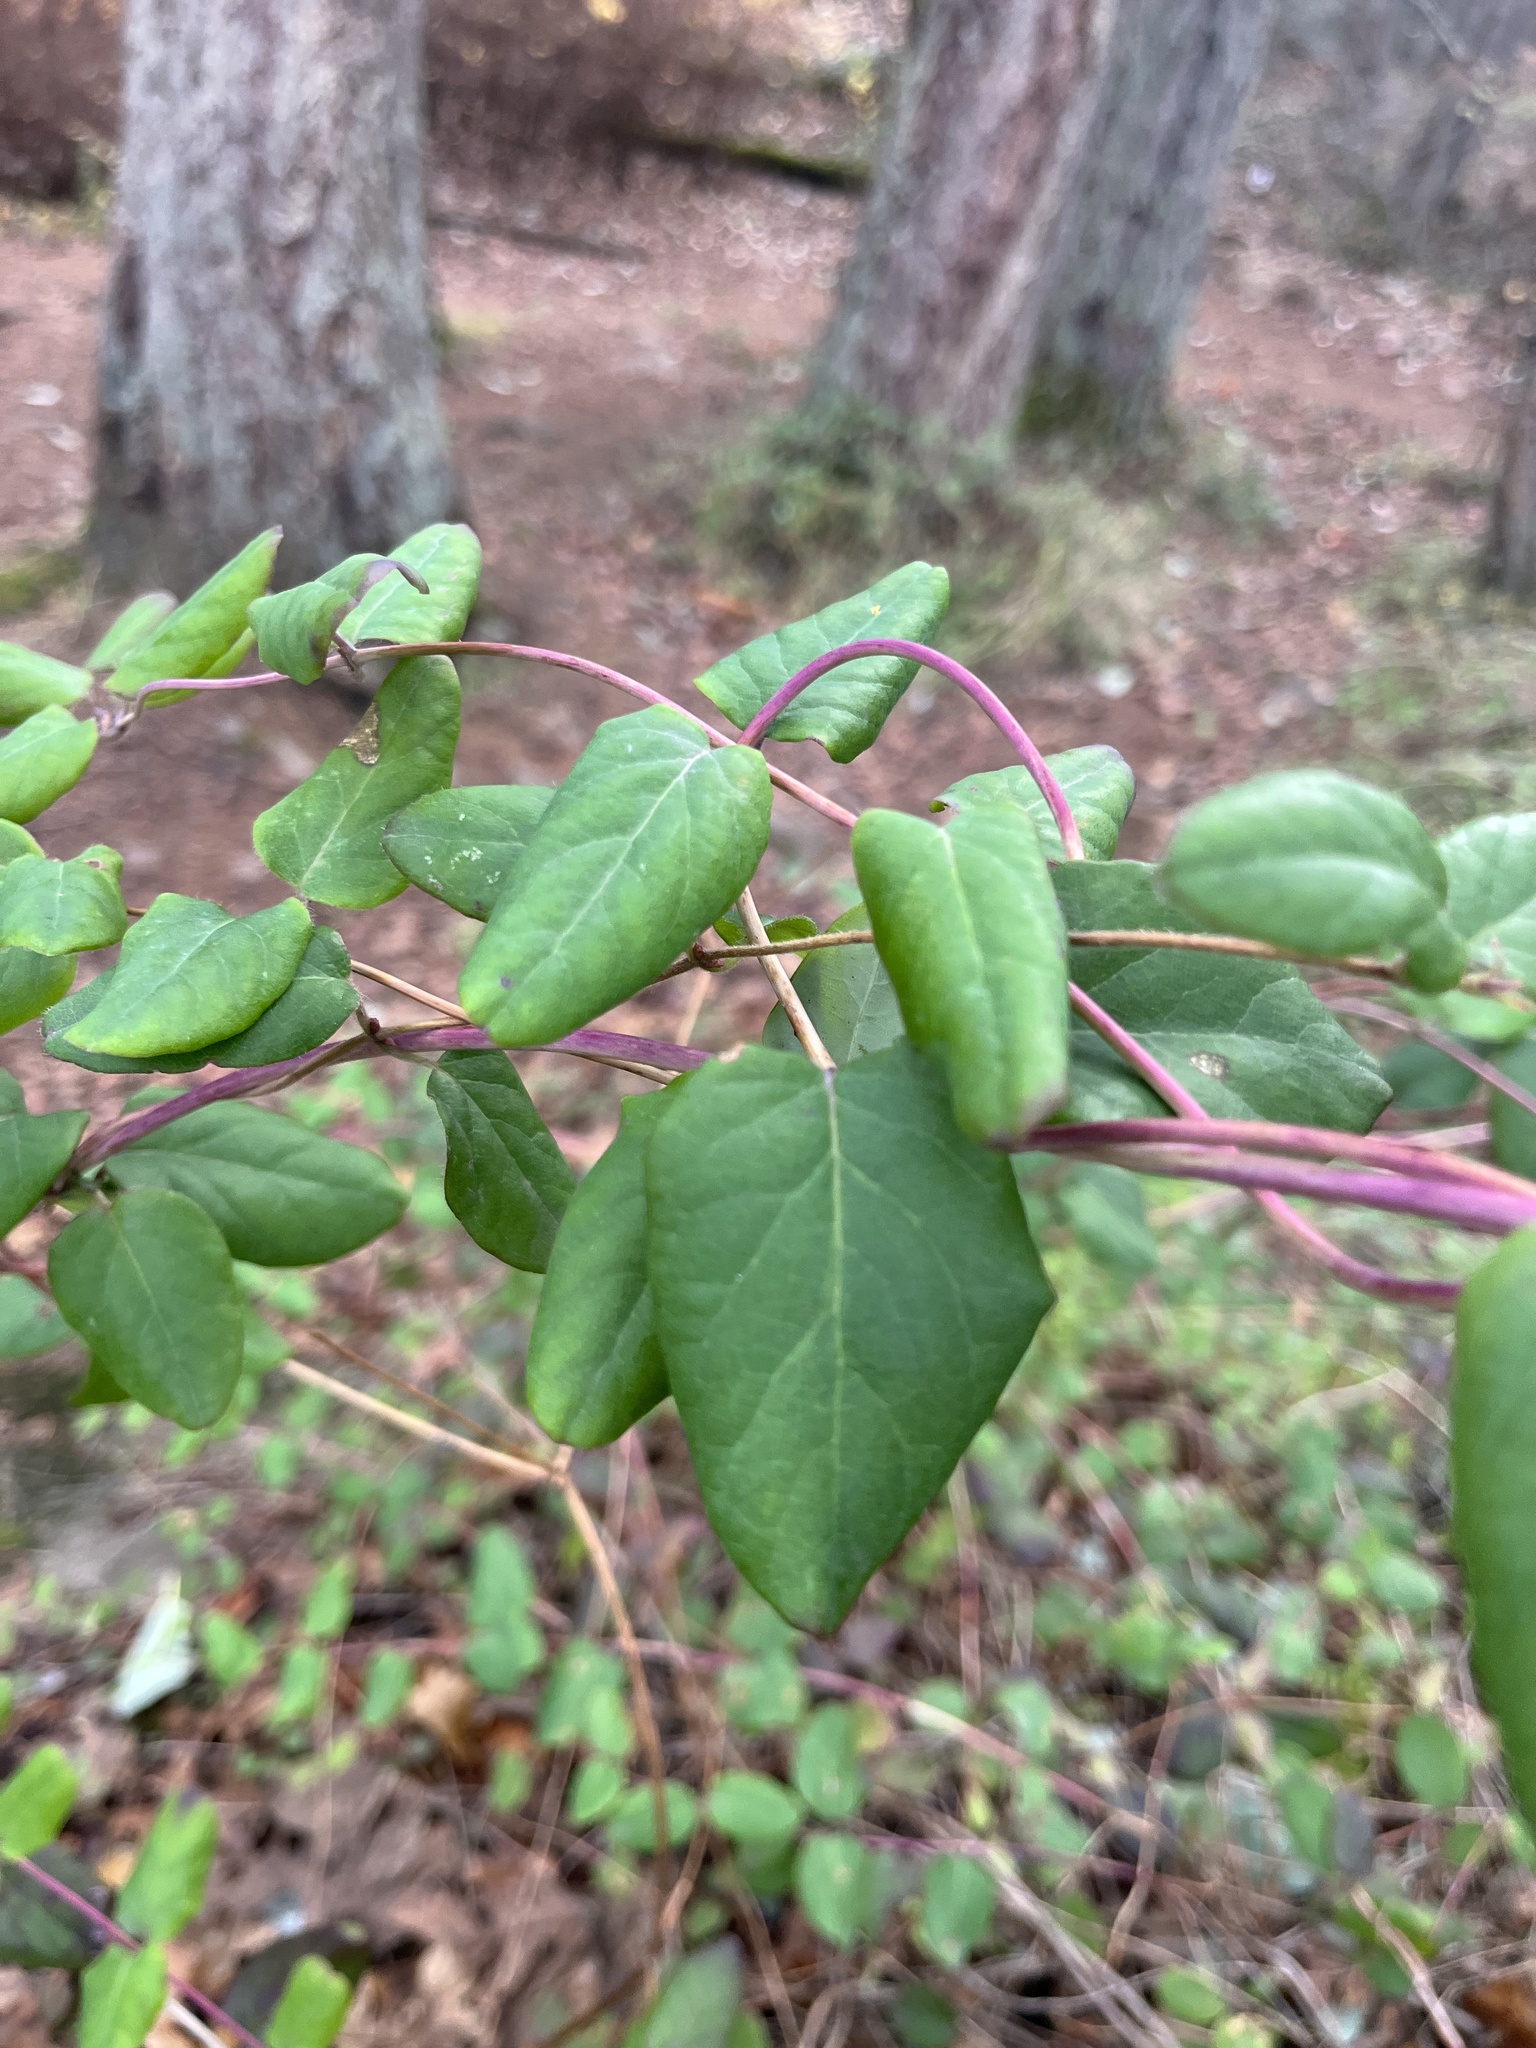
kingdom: Plantae
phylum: Tracheophyta
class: Magnoliopsida
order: Dipsacales
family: Caprifoliaceae
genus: Lonicera
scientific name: Lonicera hispidula
